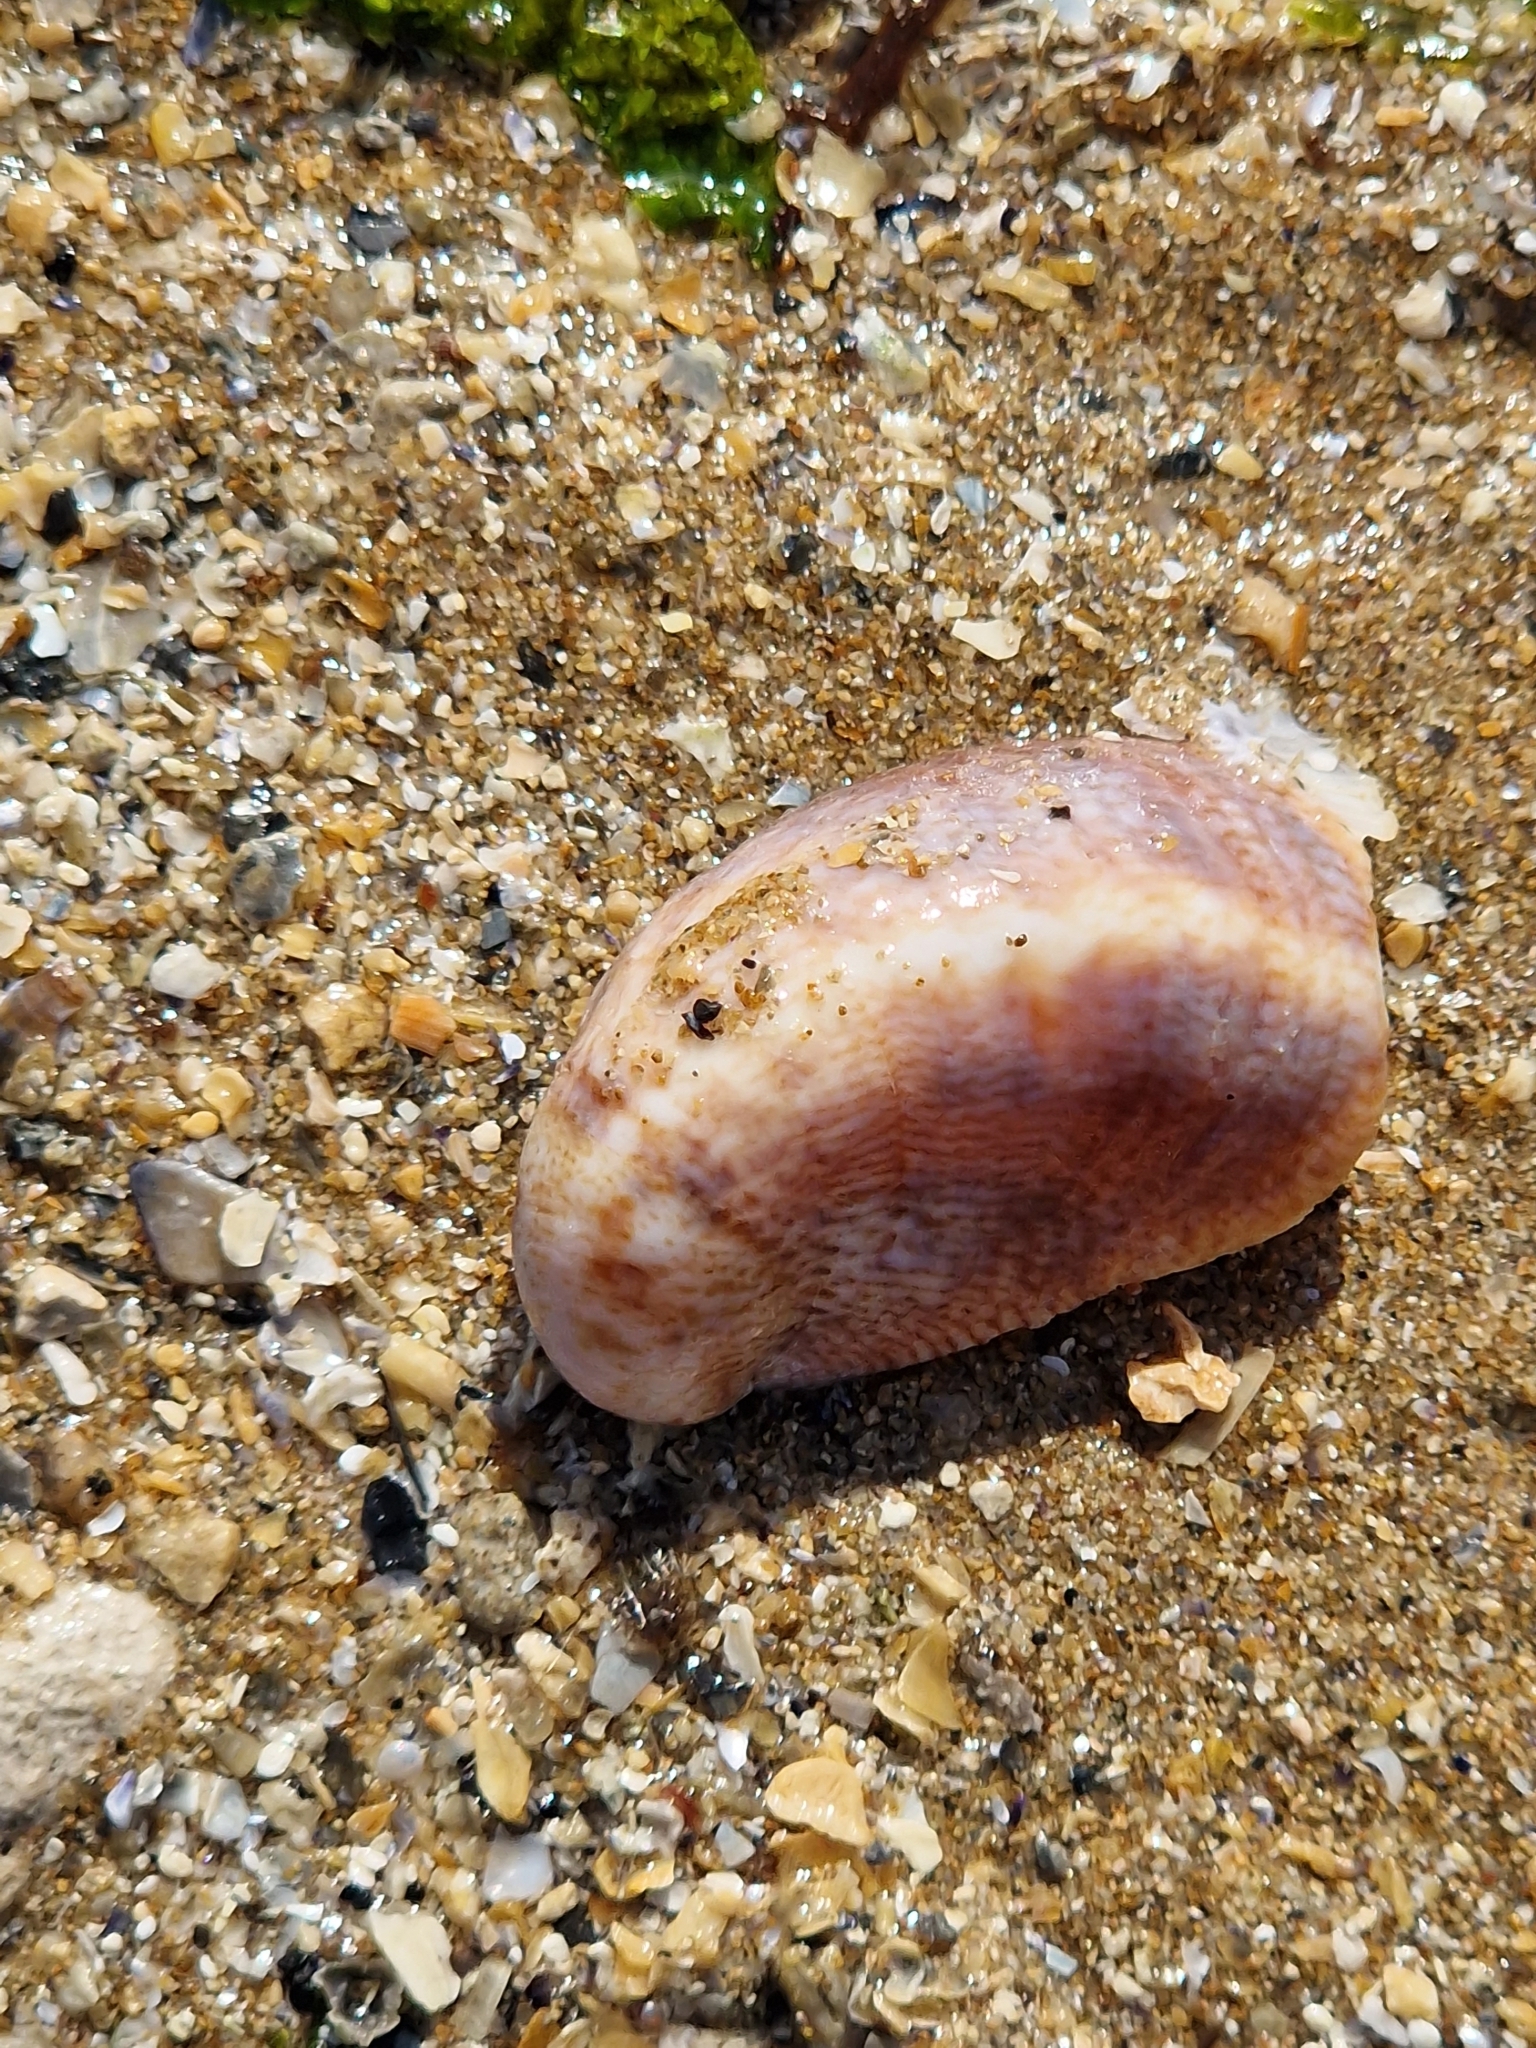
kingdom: Animalia
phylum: Mollusca
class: Gastropoda
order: Littorinimorpha
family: Calyptraeidae
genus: Crepidula
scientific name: Crepidula fornicata
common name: Slipper limpet
